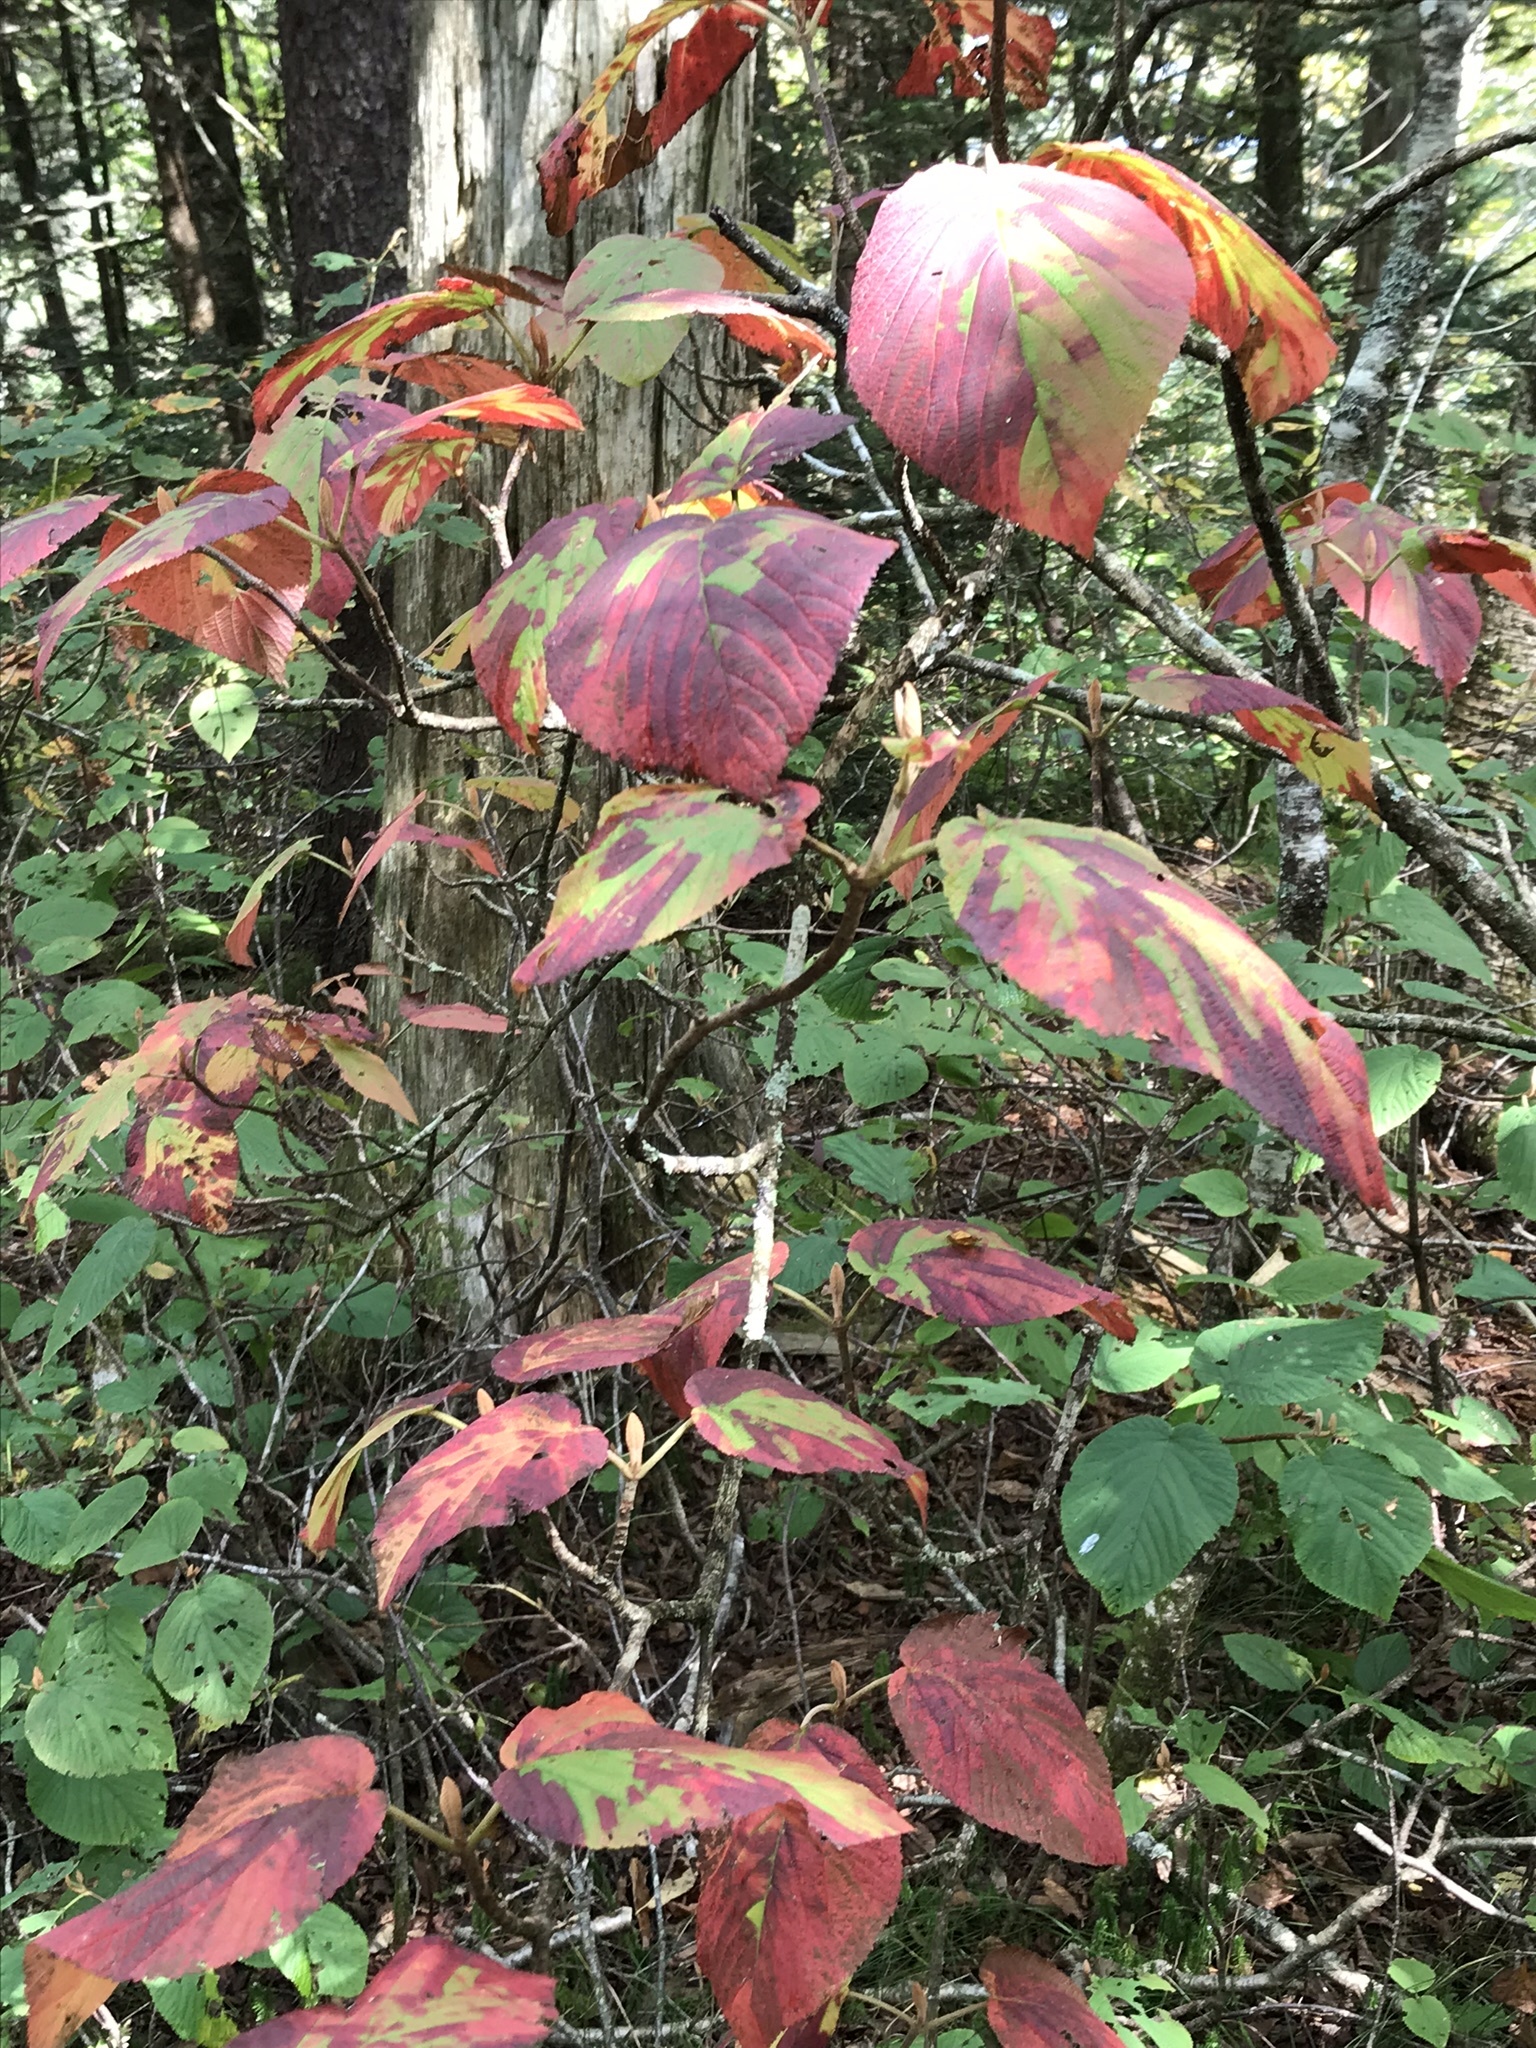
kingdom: Plantae
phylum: Tracheophyta
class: Magnoliopsida
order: Dipsacales
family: Viburnaceae
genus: Viburnum
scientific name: Viburnum lantanoides
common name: Hobblebush
